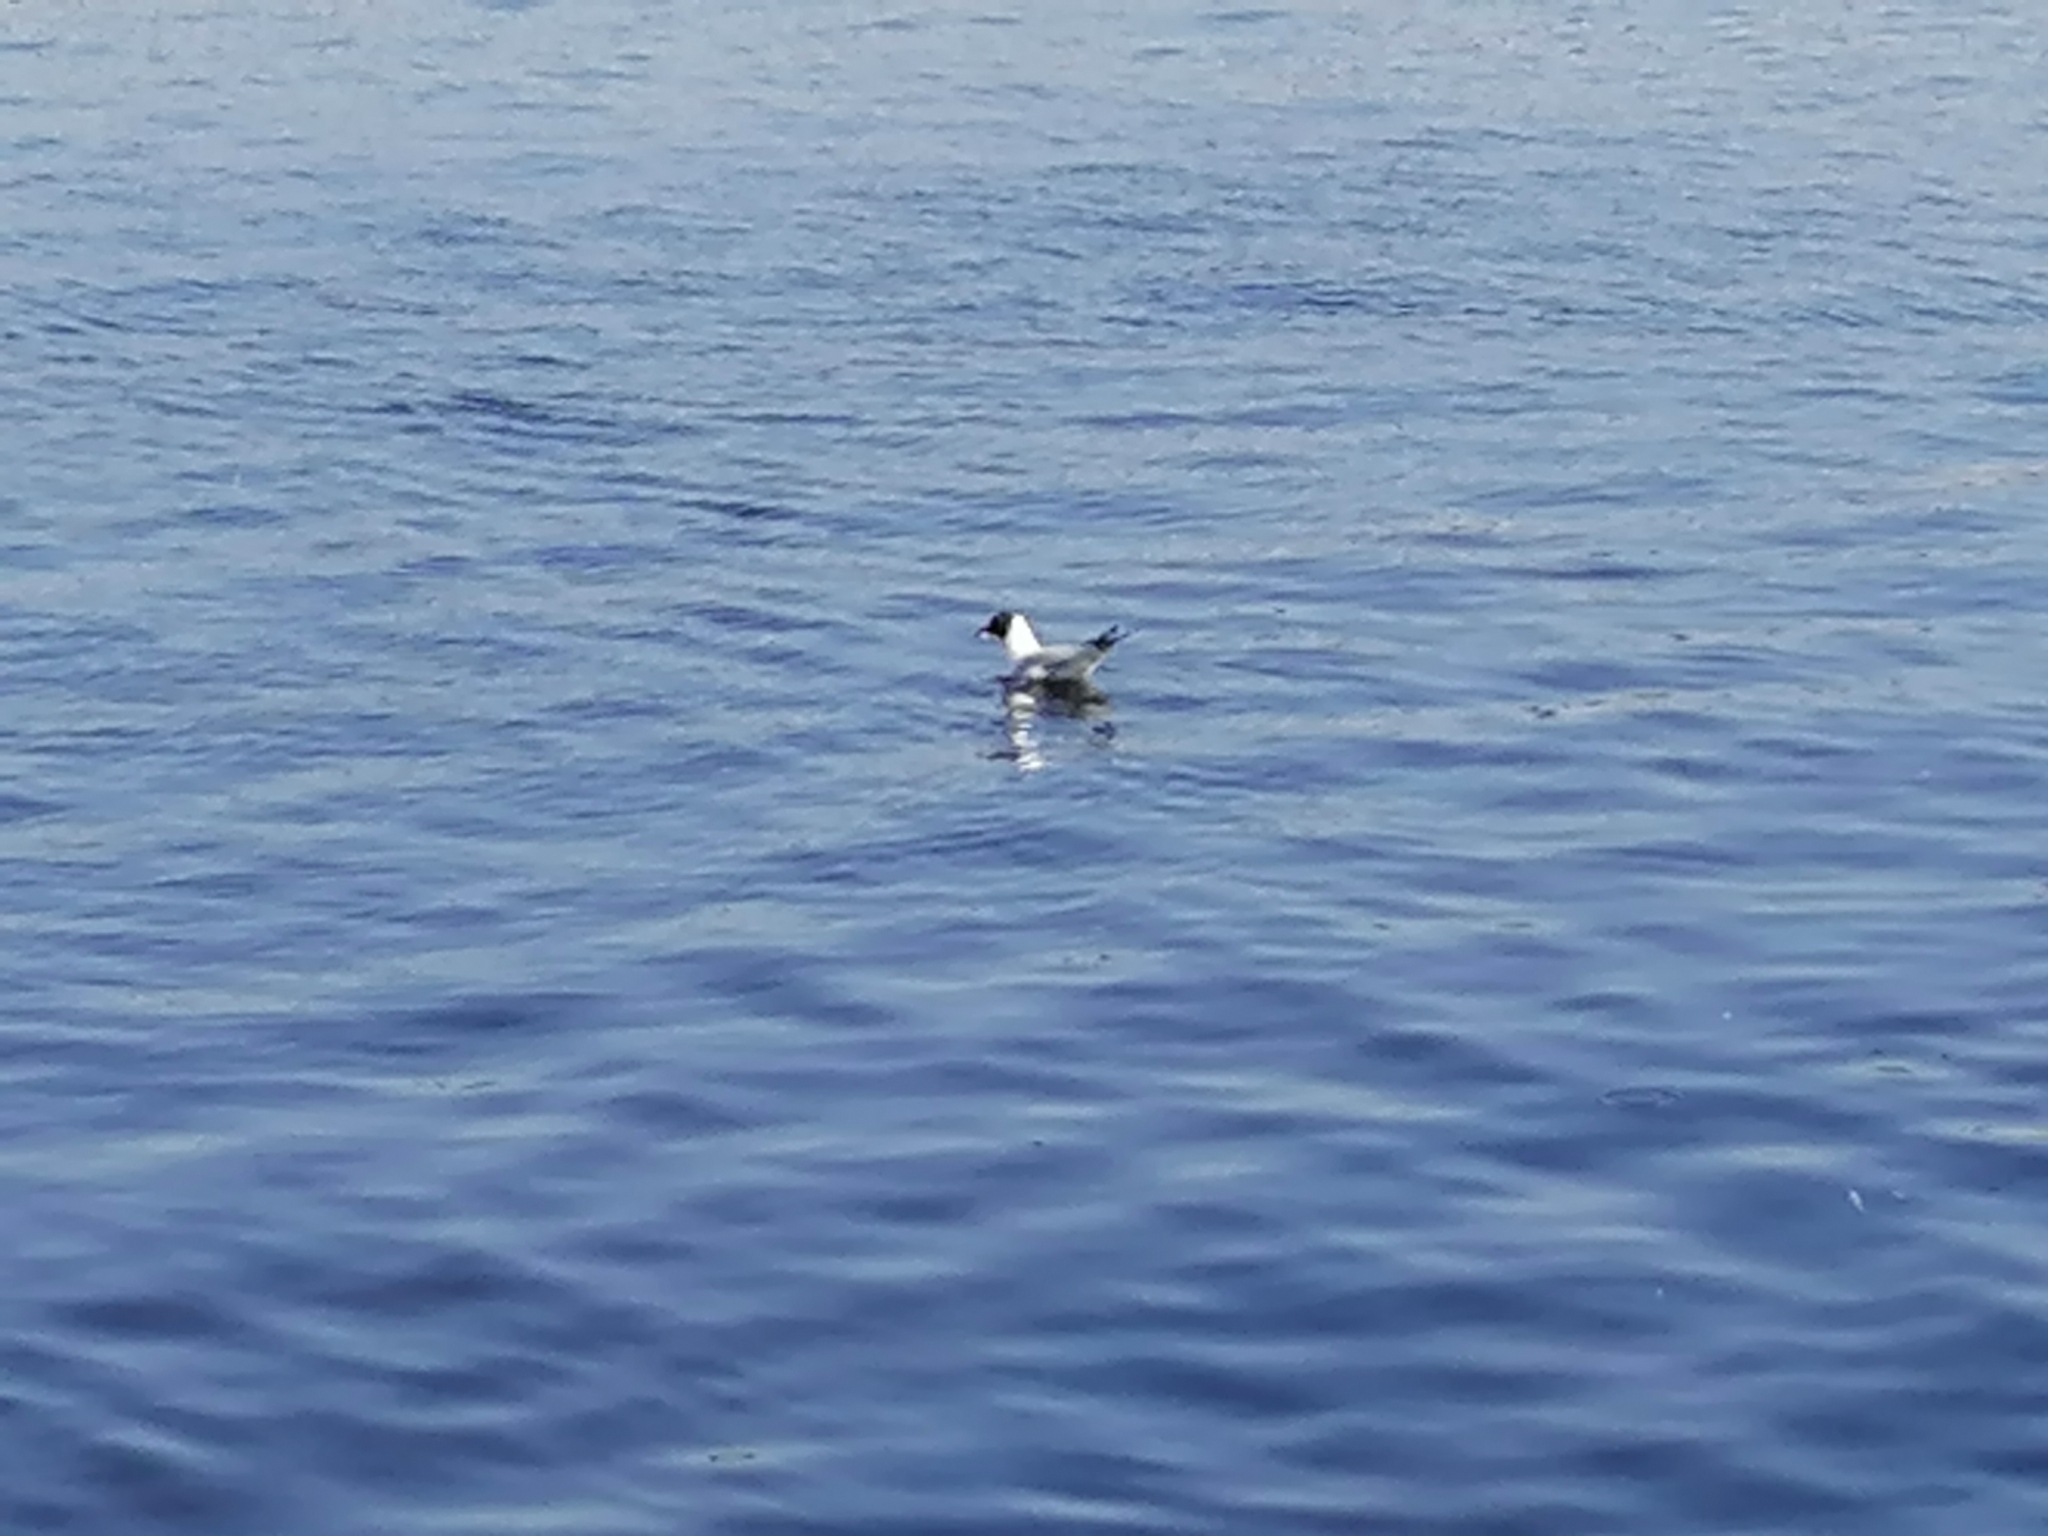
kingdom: Animalia
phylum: Chordata
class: Aves
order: Charadriiformes
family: Laridae
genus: Chroicocephalus
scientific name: Chroicocephalus ridibundus
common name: Black-headed gull
